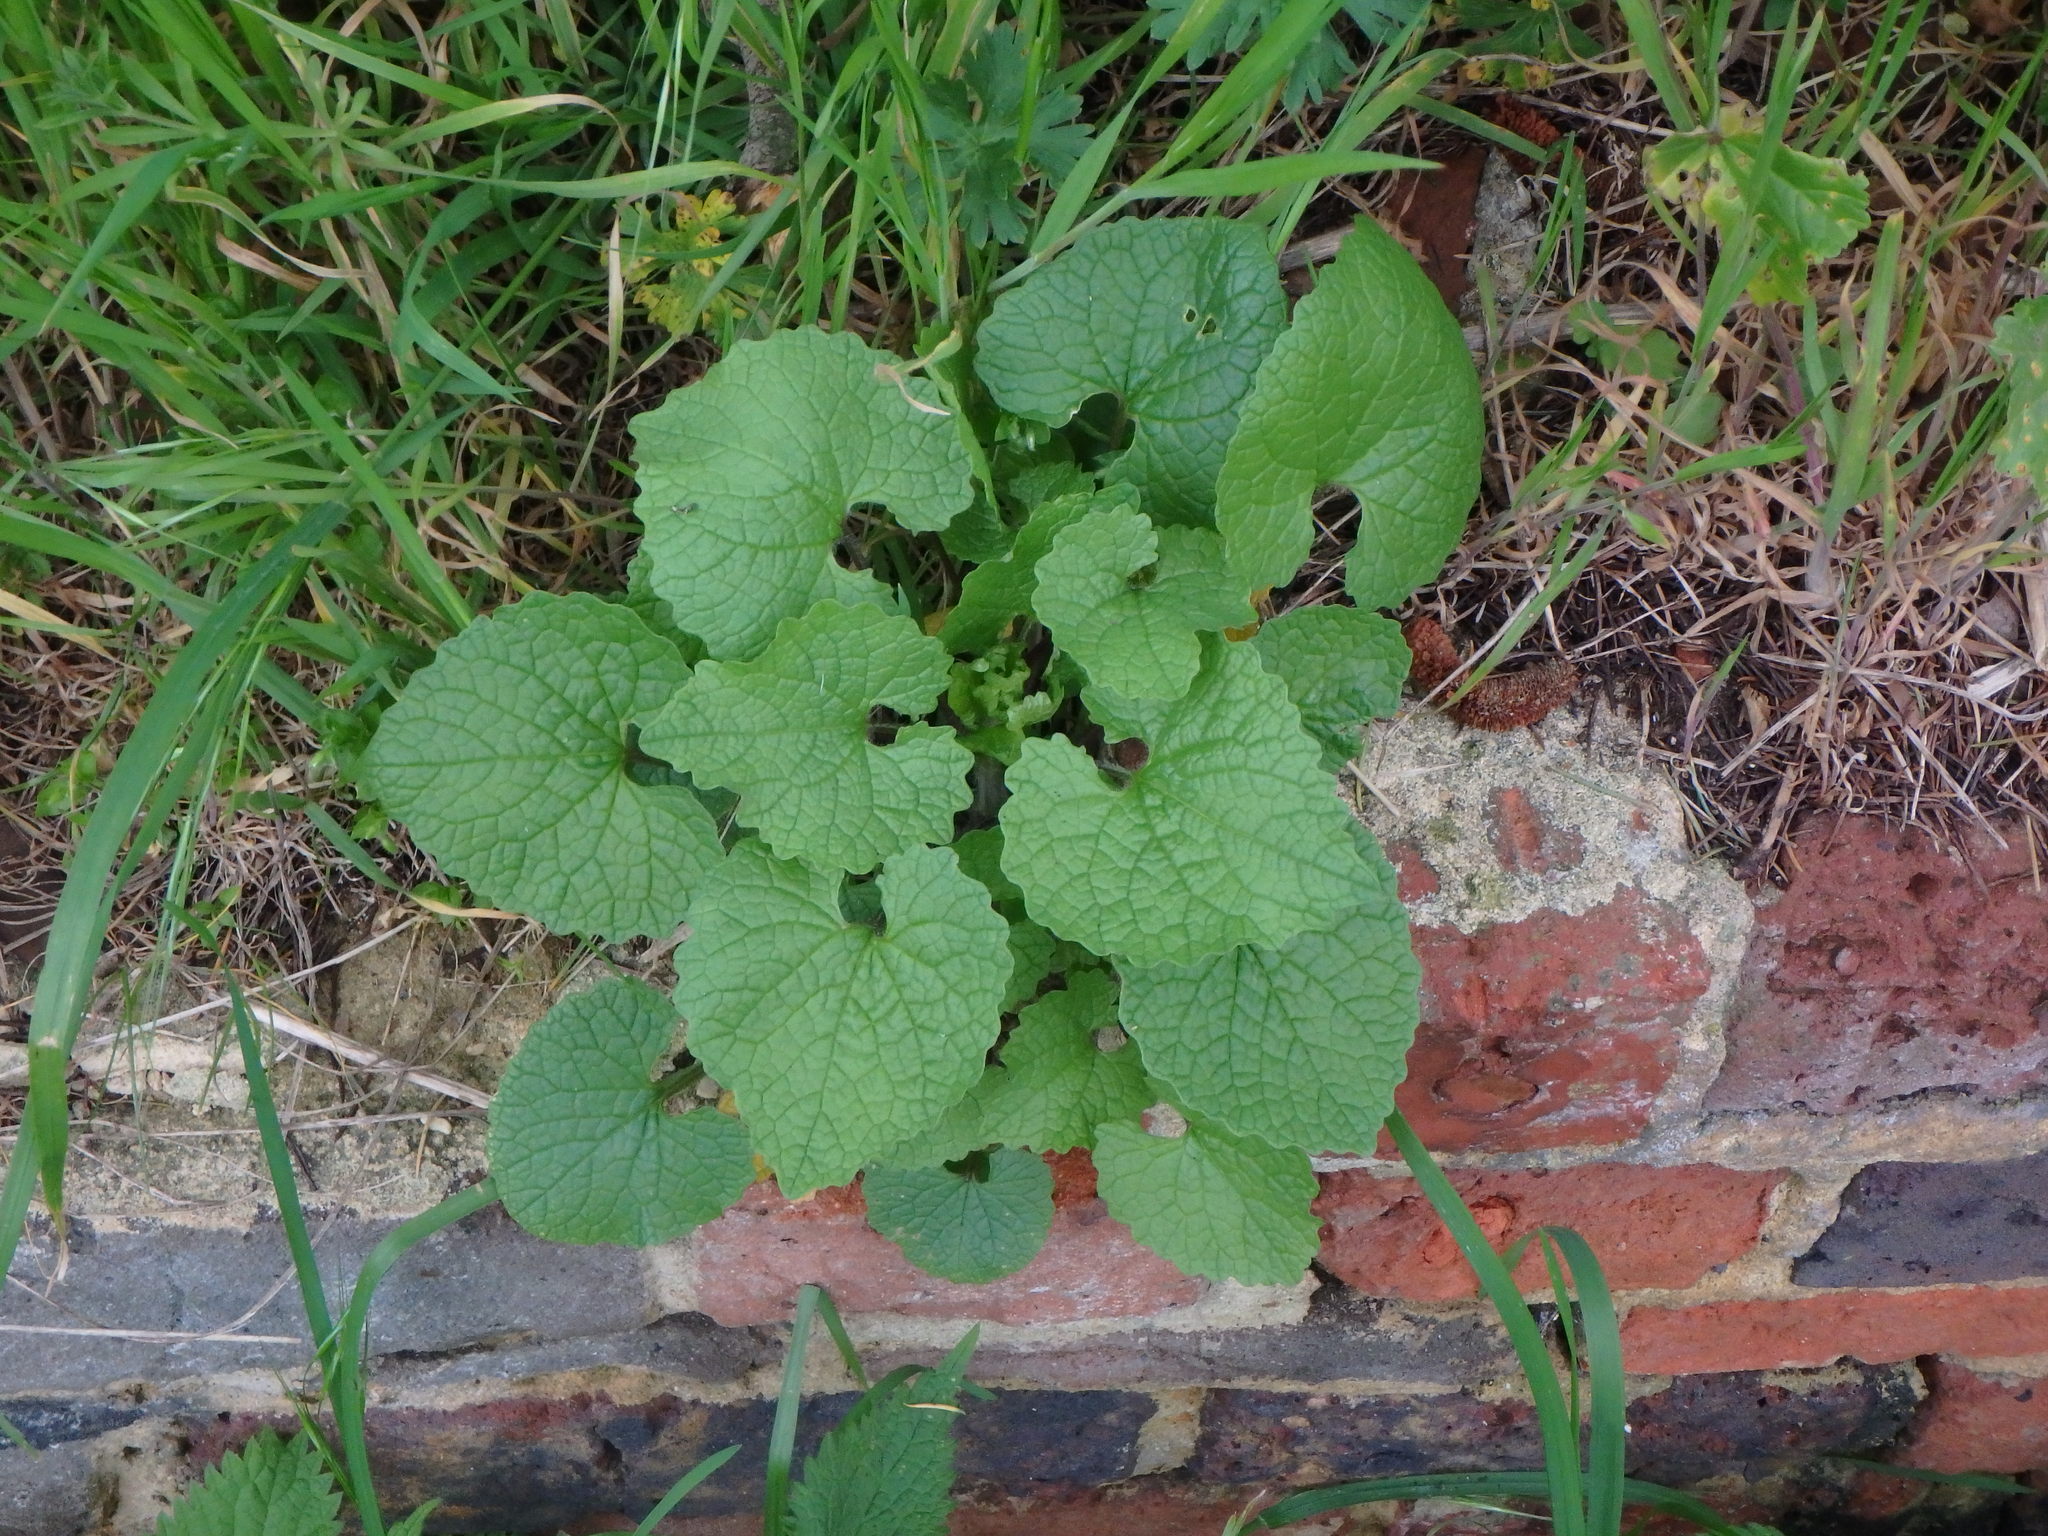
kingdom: Plantae
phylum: Tracheophyta
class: Magnoliopsida
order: Brassicales
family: Brassicaceae
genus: Alliaria
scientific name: Alliaria petiolata
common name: Garlic mustard
